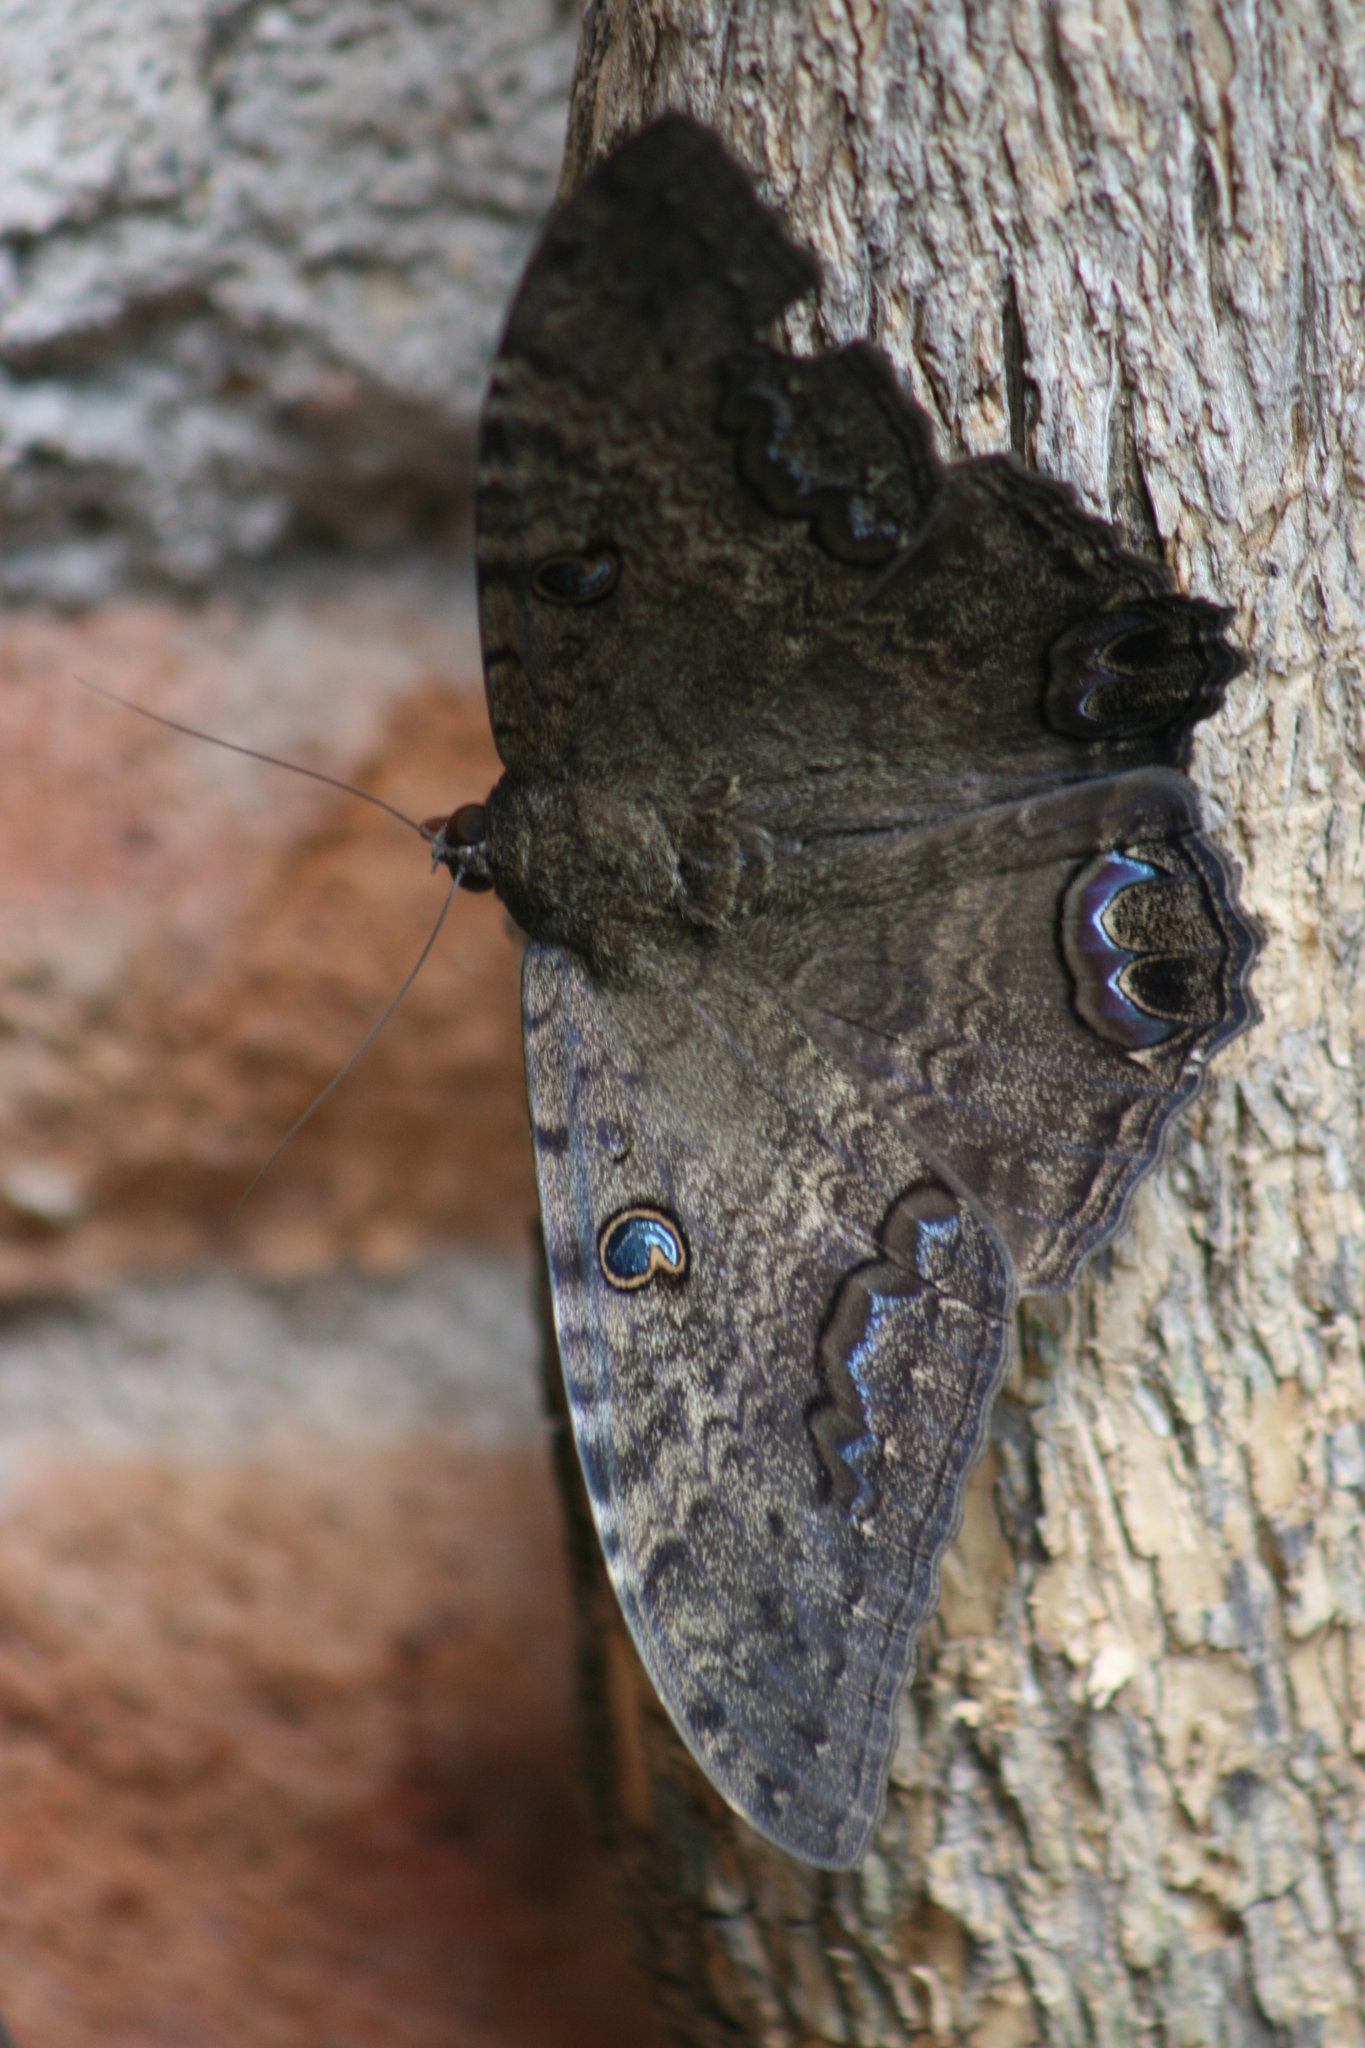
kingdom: Animalia
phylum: Arthropoda
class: Insecta
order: Lepidoptera
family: Erebidae
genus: Ascalapha
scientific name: Ascalapha odorata
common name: Black witch
